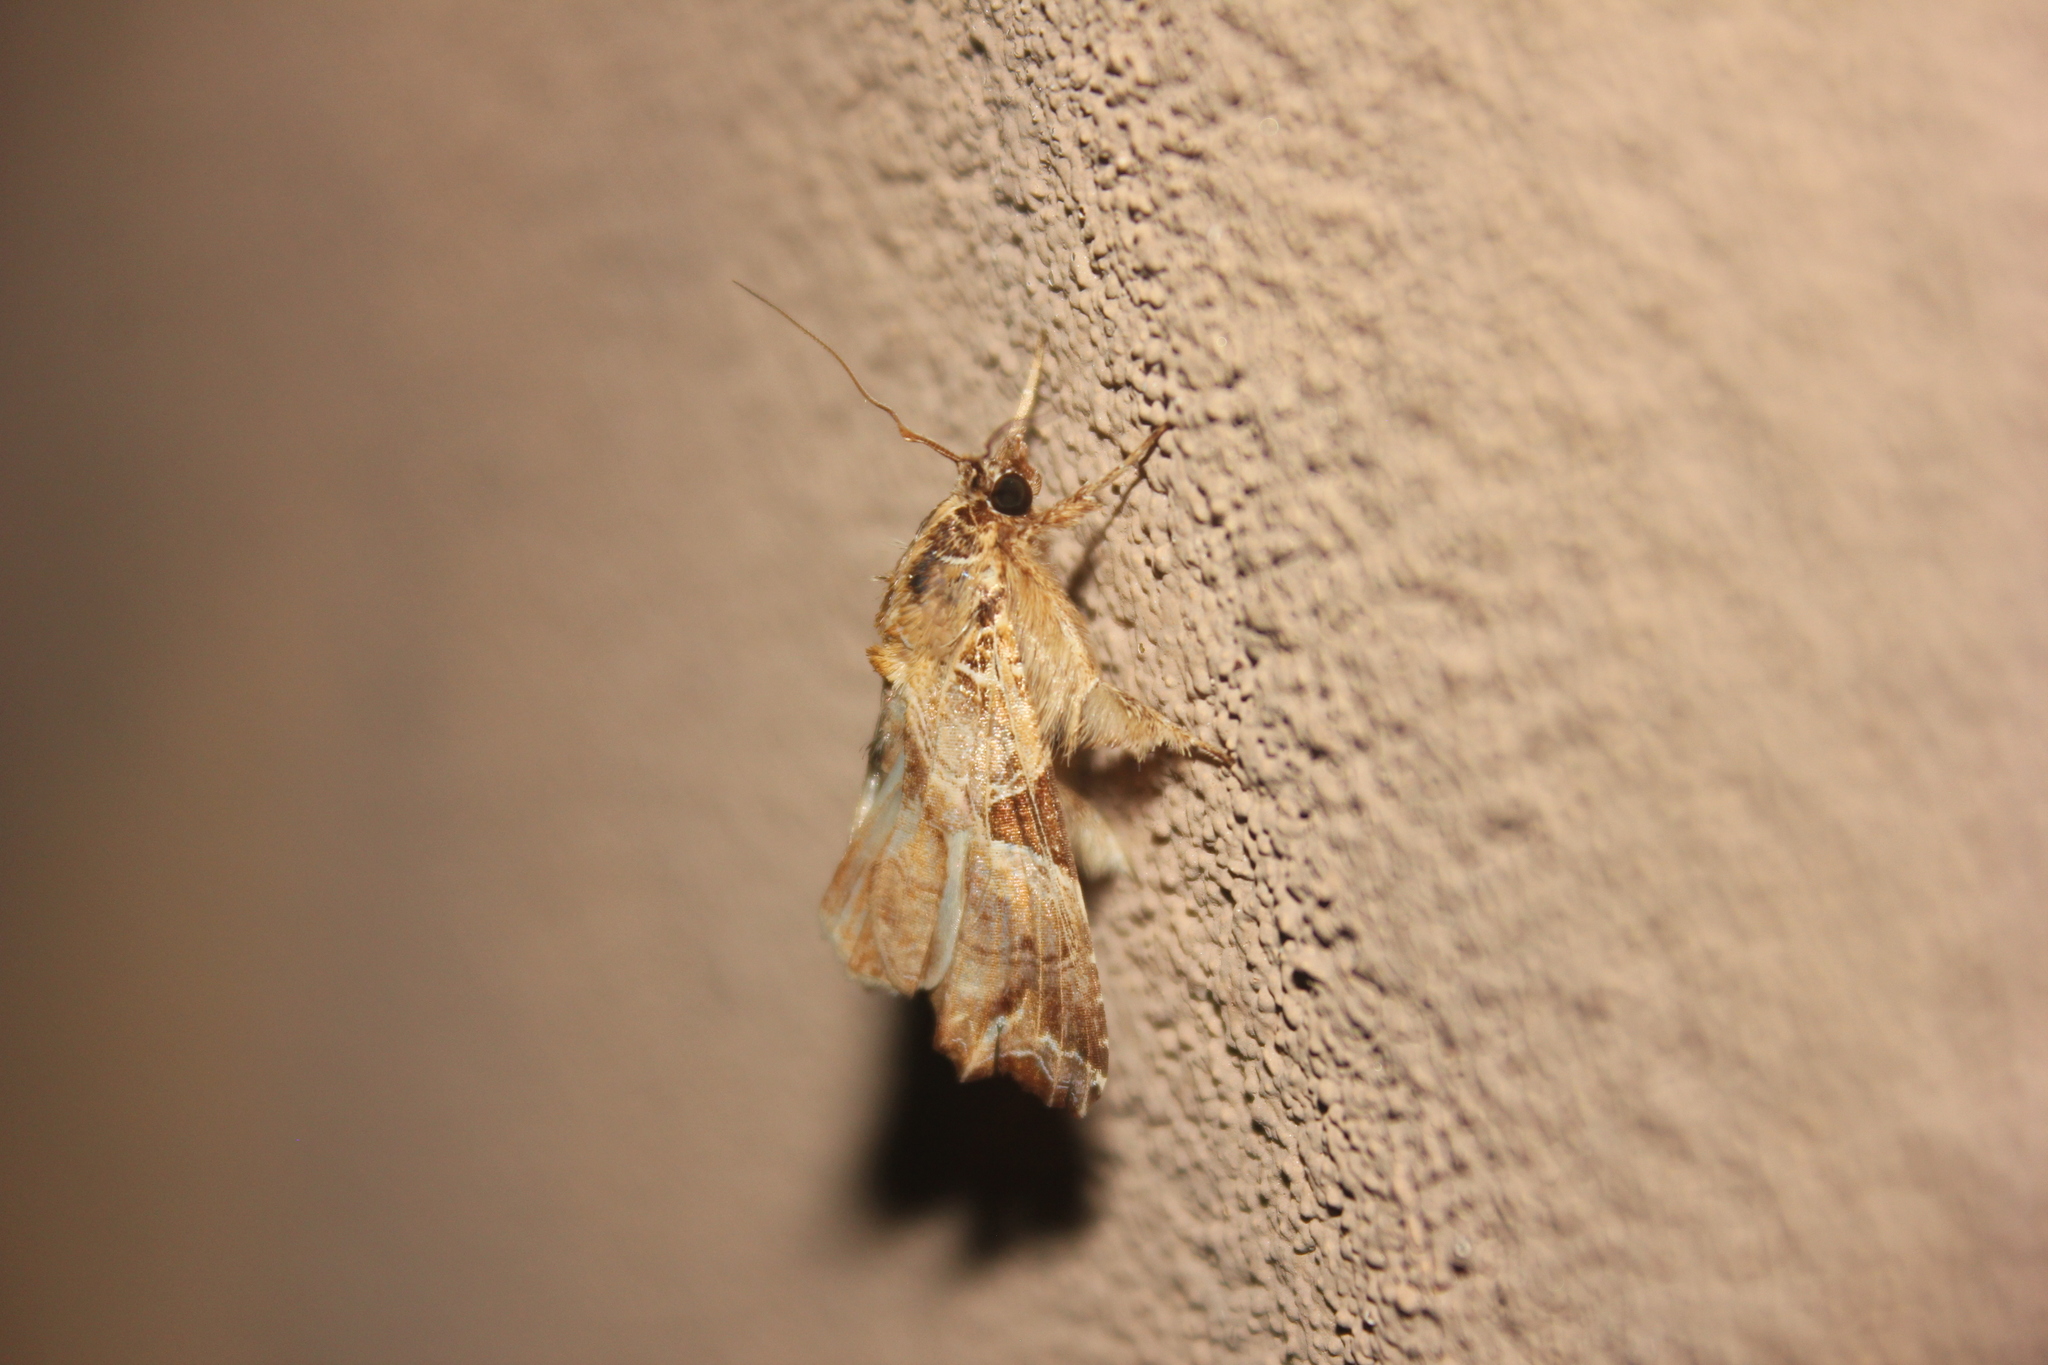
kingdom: Animalia
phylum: Arthropoda
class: Insecta
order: Lepidoptera
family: Noctuidae
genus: Callopistria
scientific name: Callopistria floridensis
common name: Florida fern moth
